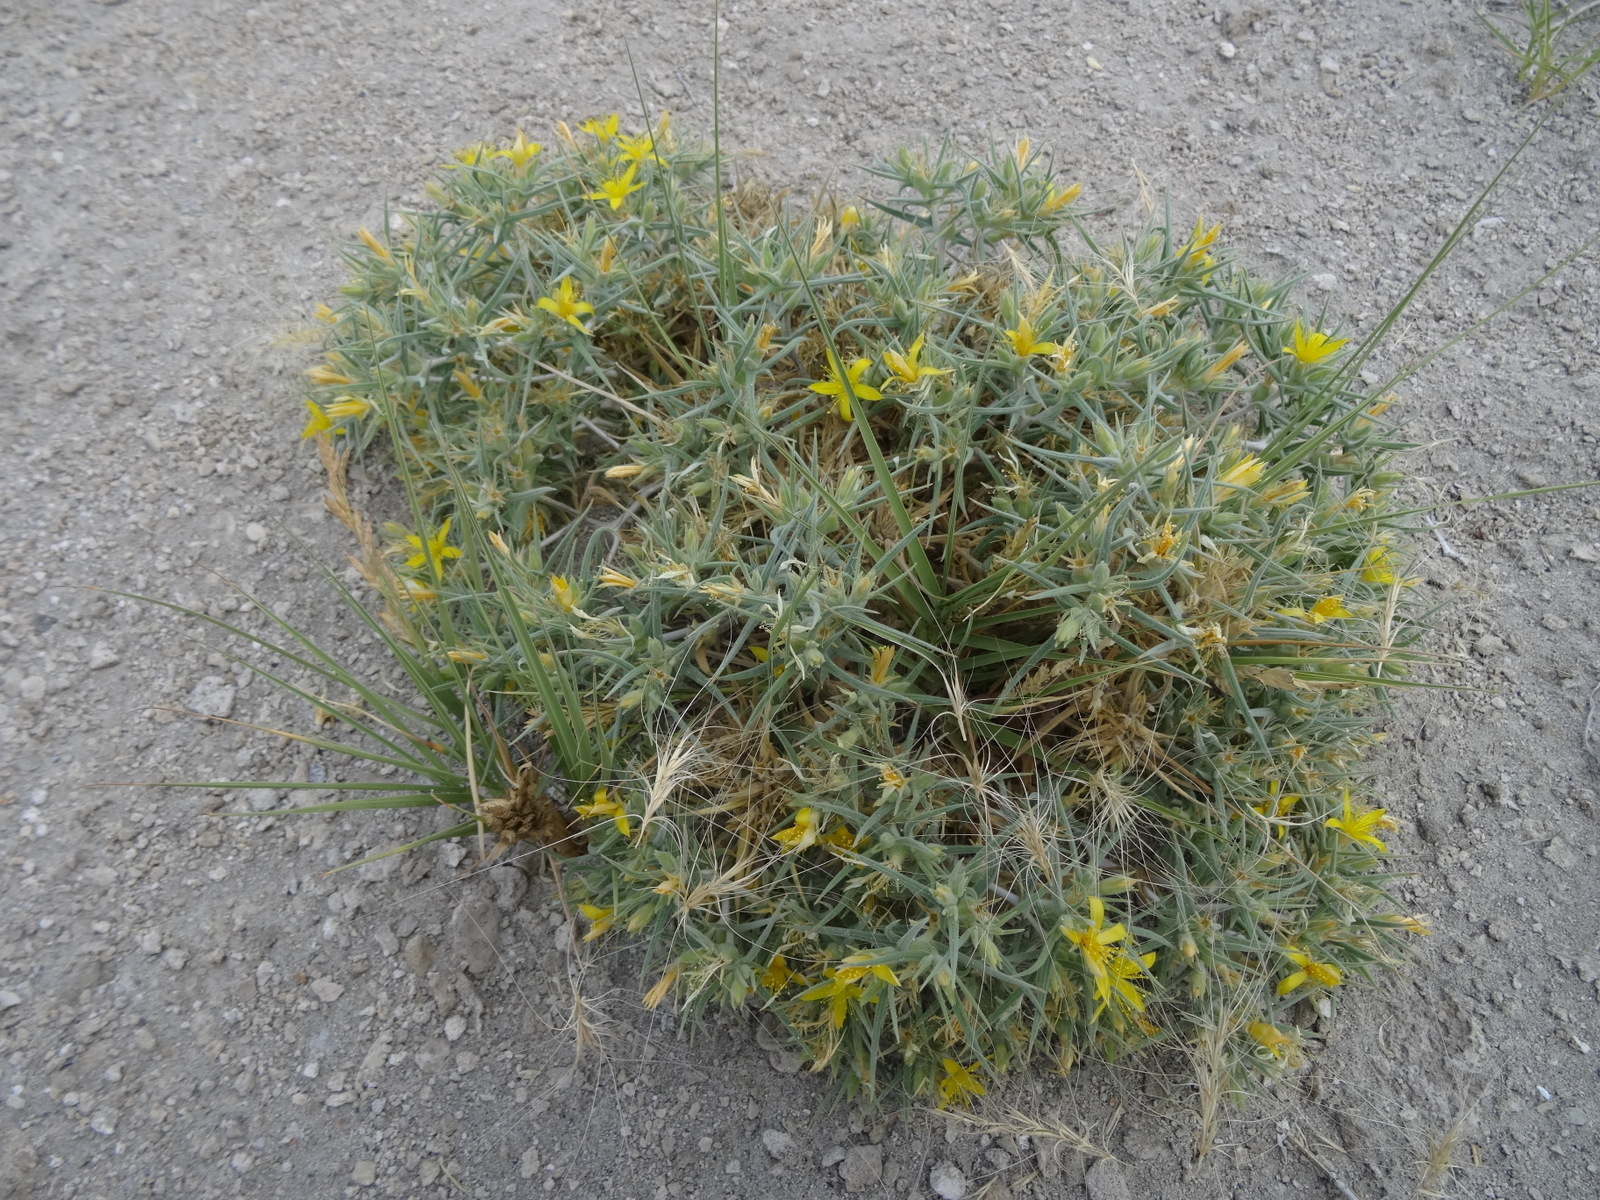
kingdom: Plantae
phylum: Tracheophyta
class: Magnoliopsida
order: Cornales
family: Loasaceae
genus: Mentzelia
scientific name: Mentzelia torreyi
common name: Torrey's blazingstar
